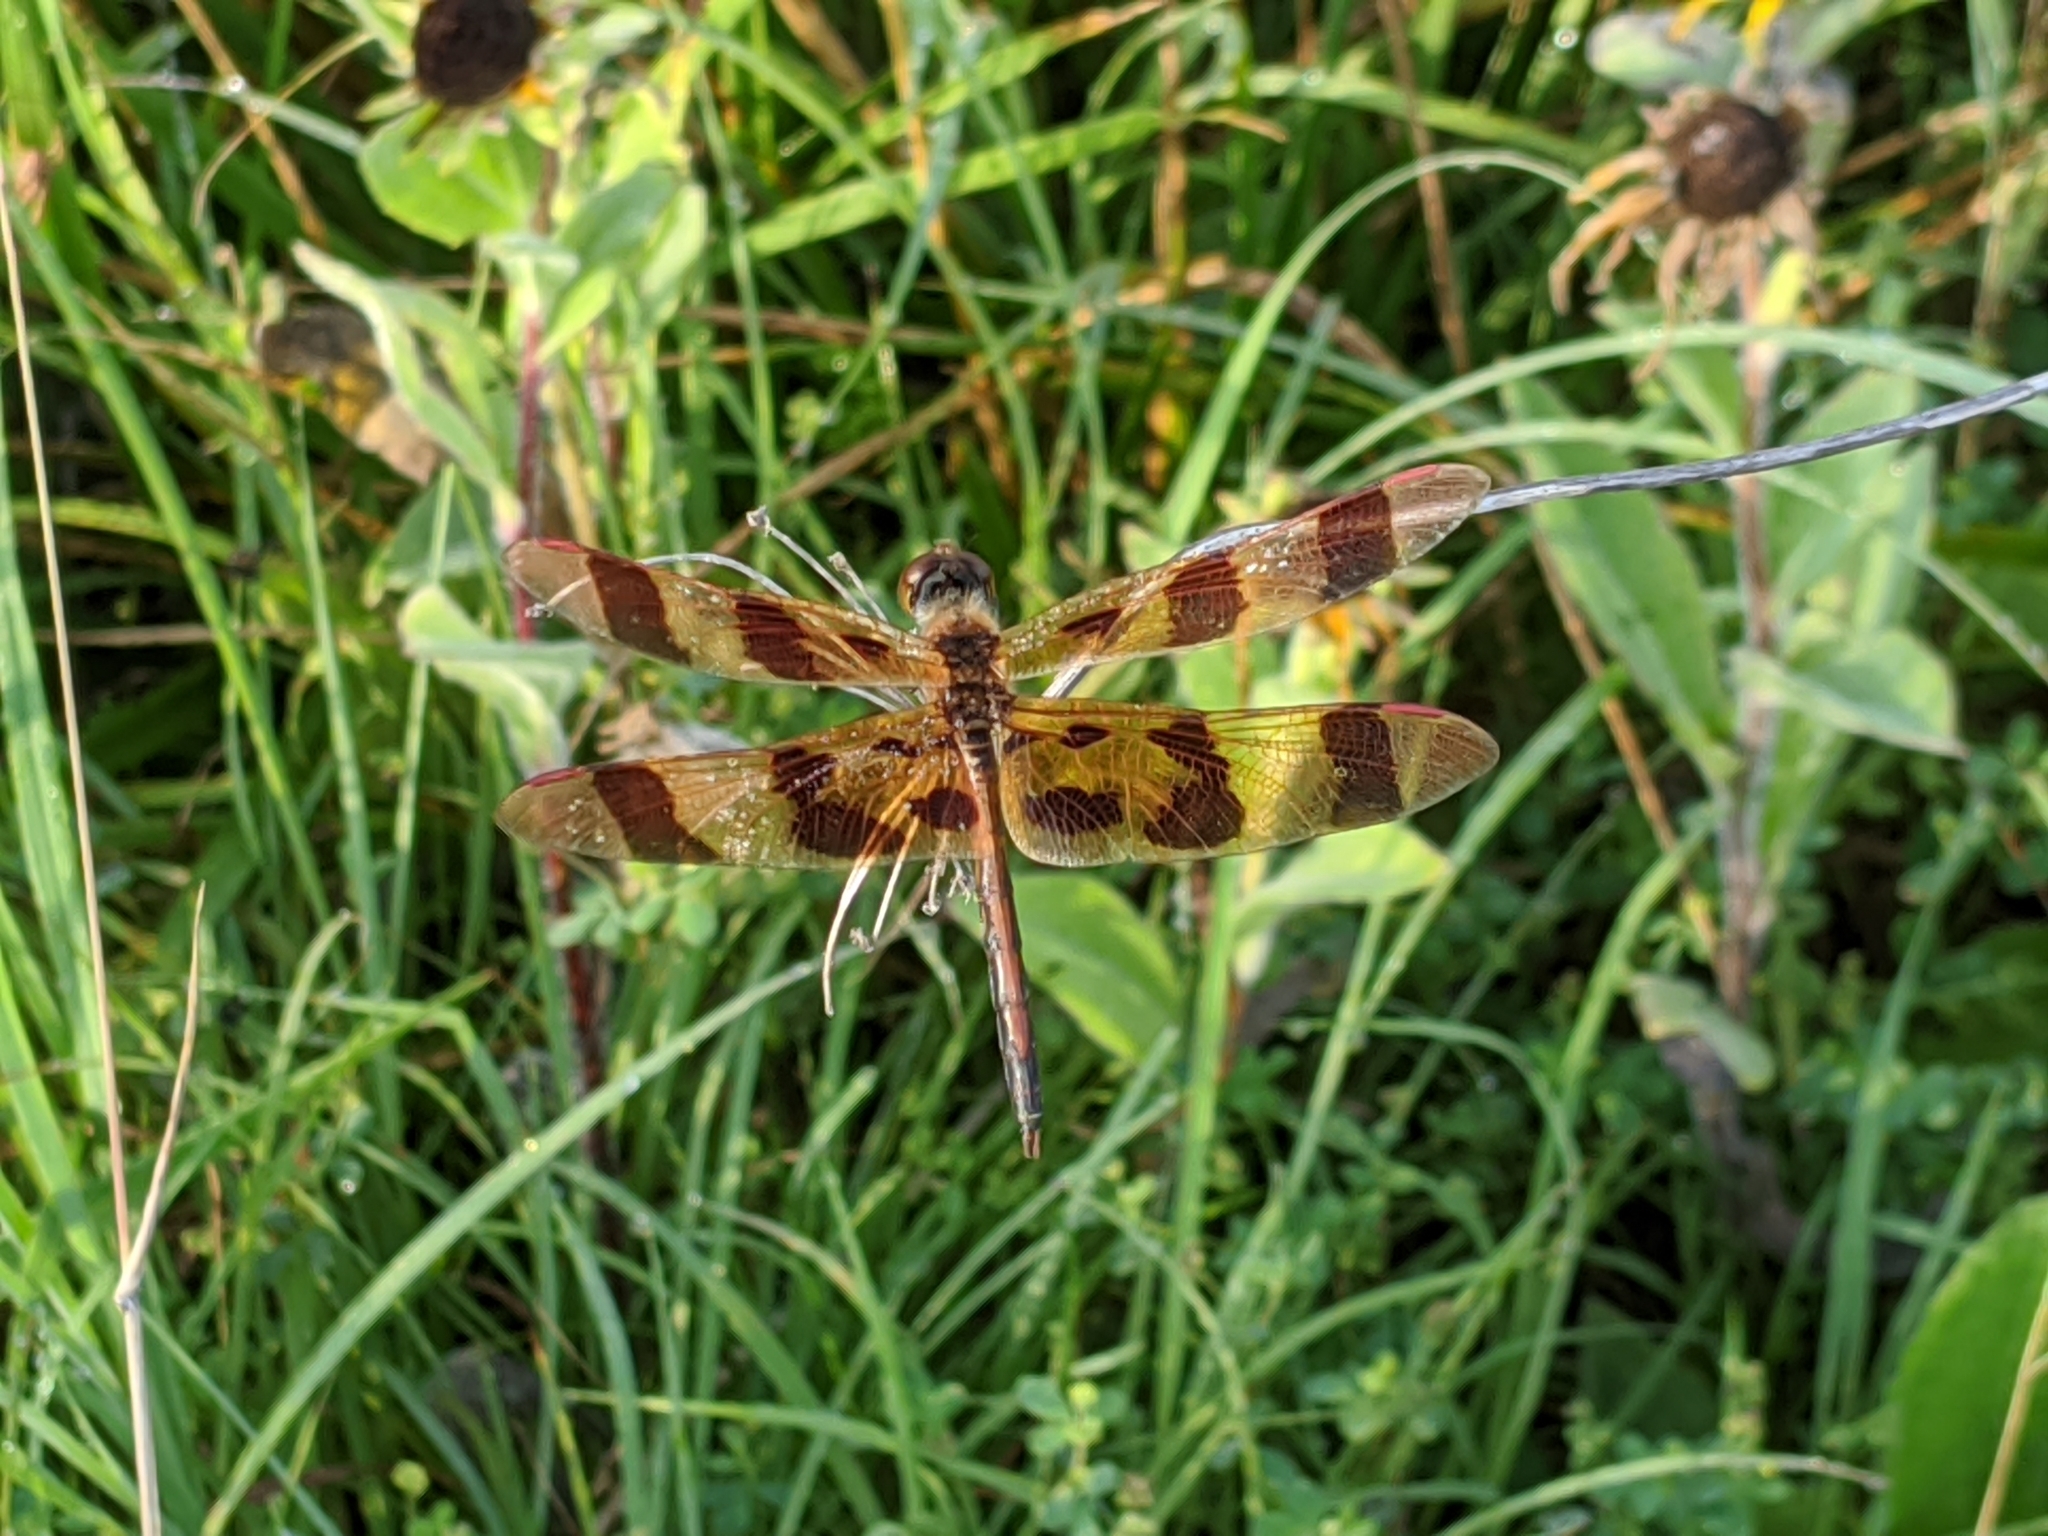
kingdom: Animalia
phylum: Arthropoda
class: Insecta
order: Odonata
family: Libellulidae
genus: Celithemis
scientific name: Celithemis eponina
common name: Halloween pennant
